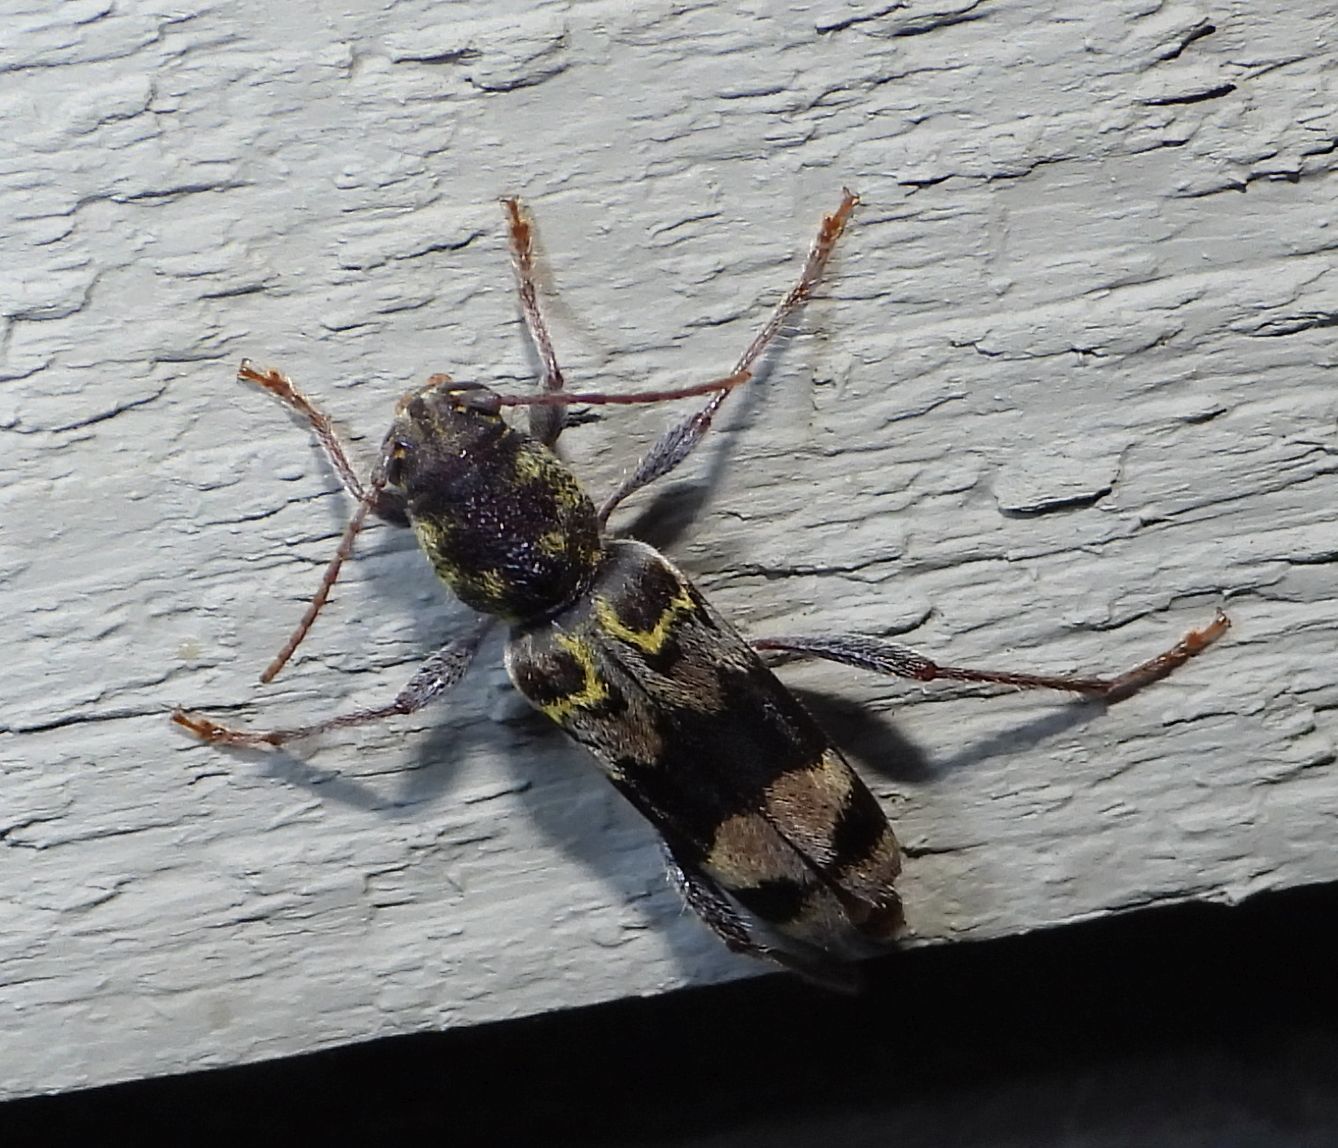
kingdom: Animalia
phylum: Arthropoda
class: Insecta
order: Coleoptera
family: Cerambycidae
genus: Xylotrechus
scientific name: Xylotrechus colonus
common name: Long-horned beetle
